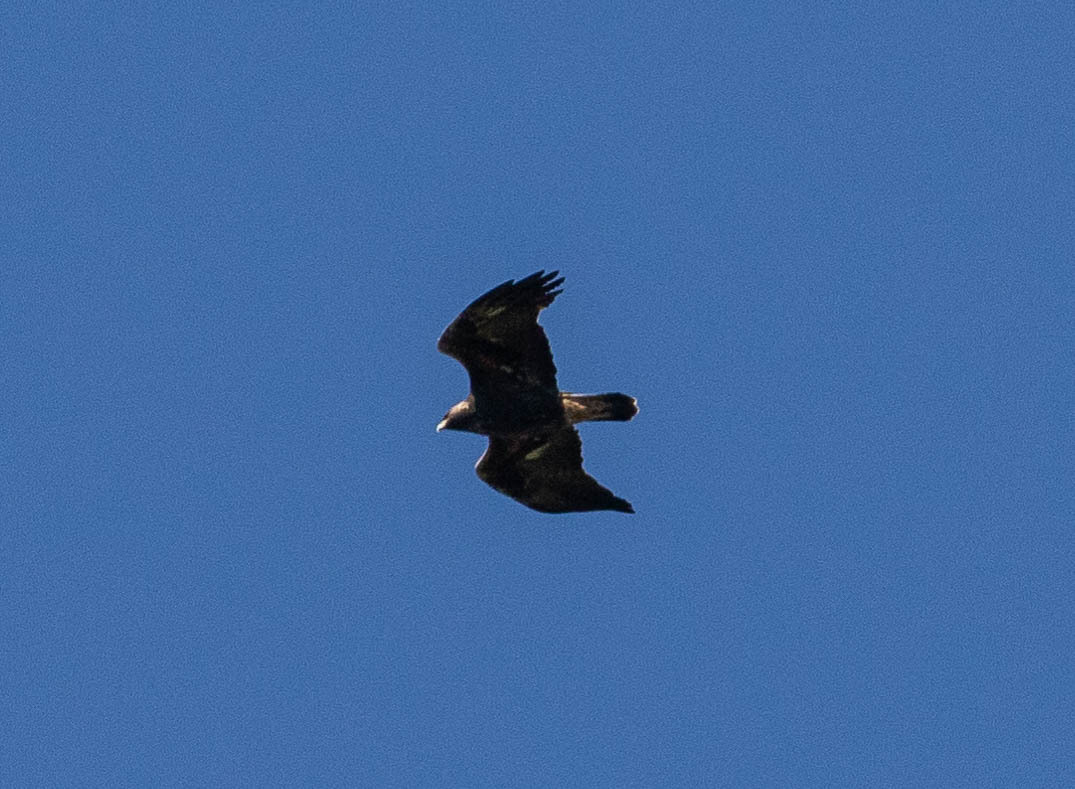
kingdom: Animalia
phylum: Chordata
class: Aves
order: Accipitriformes
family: Accipitridae
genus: Aquila
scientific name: Aquila chrysaetos
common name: Golden eagle
